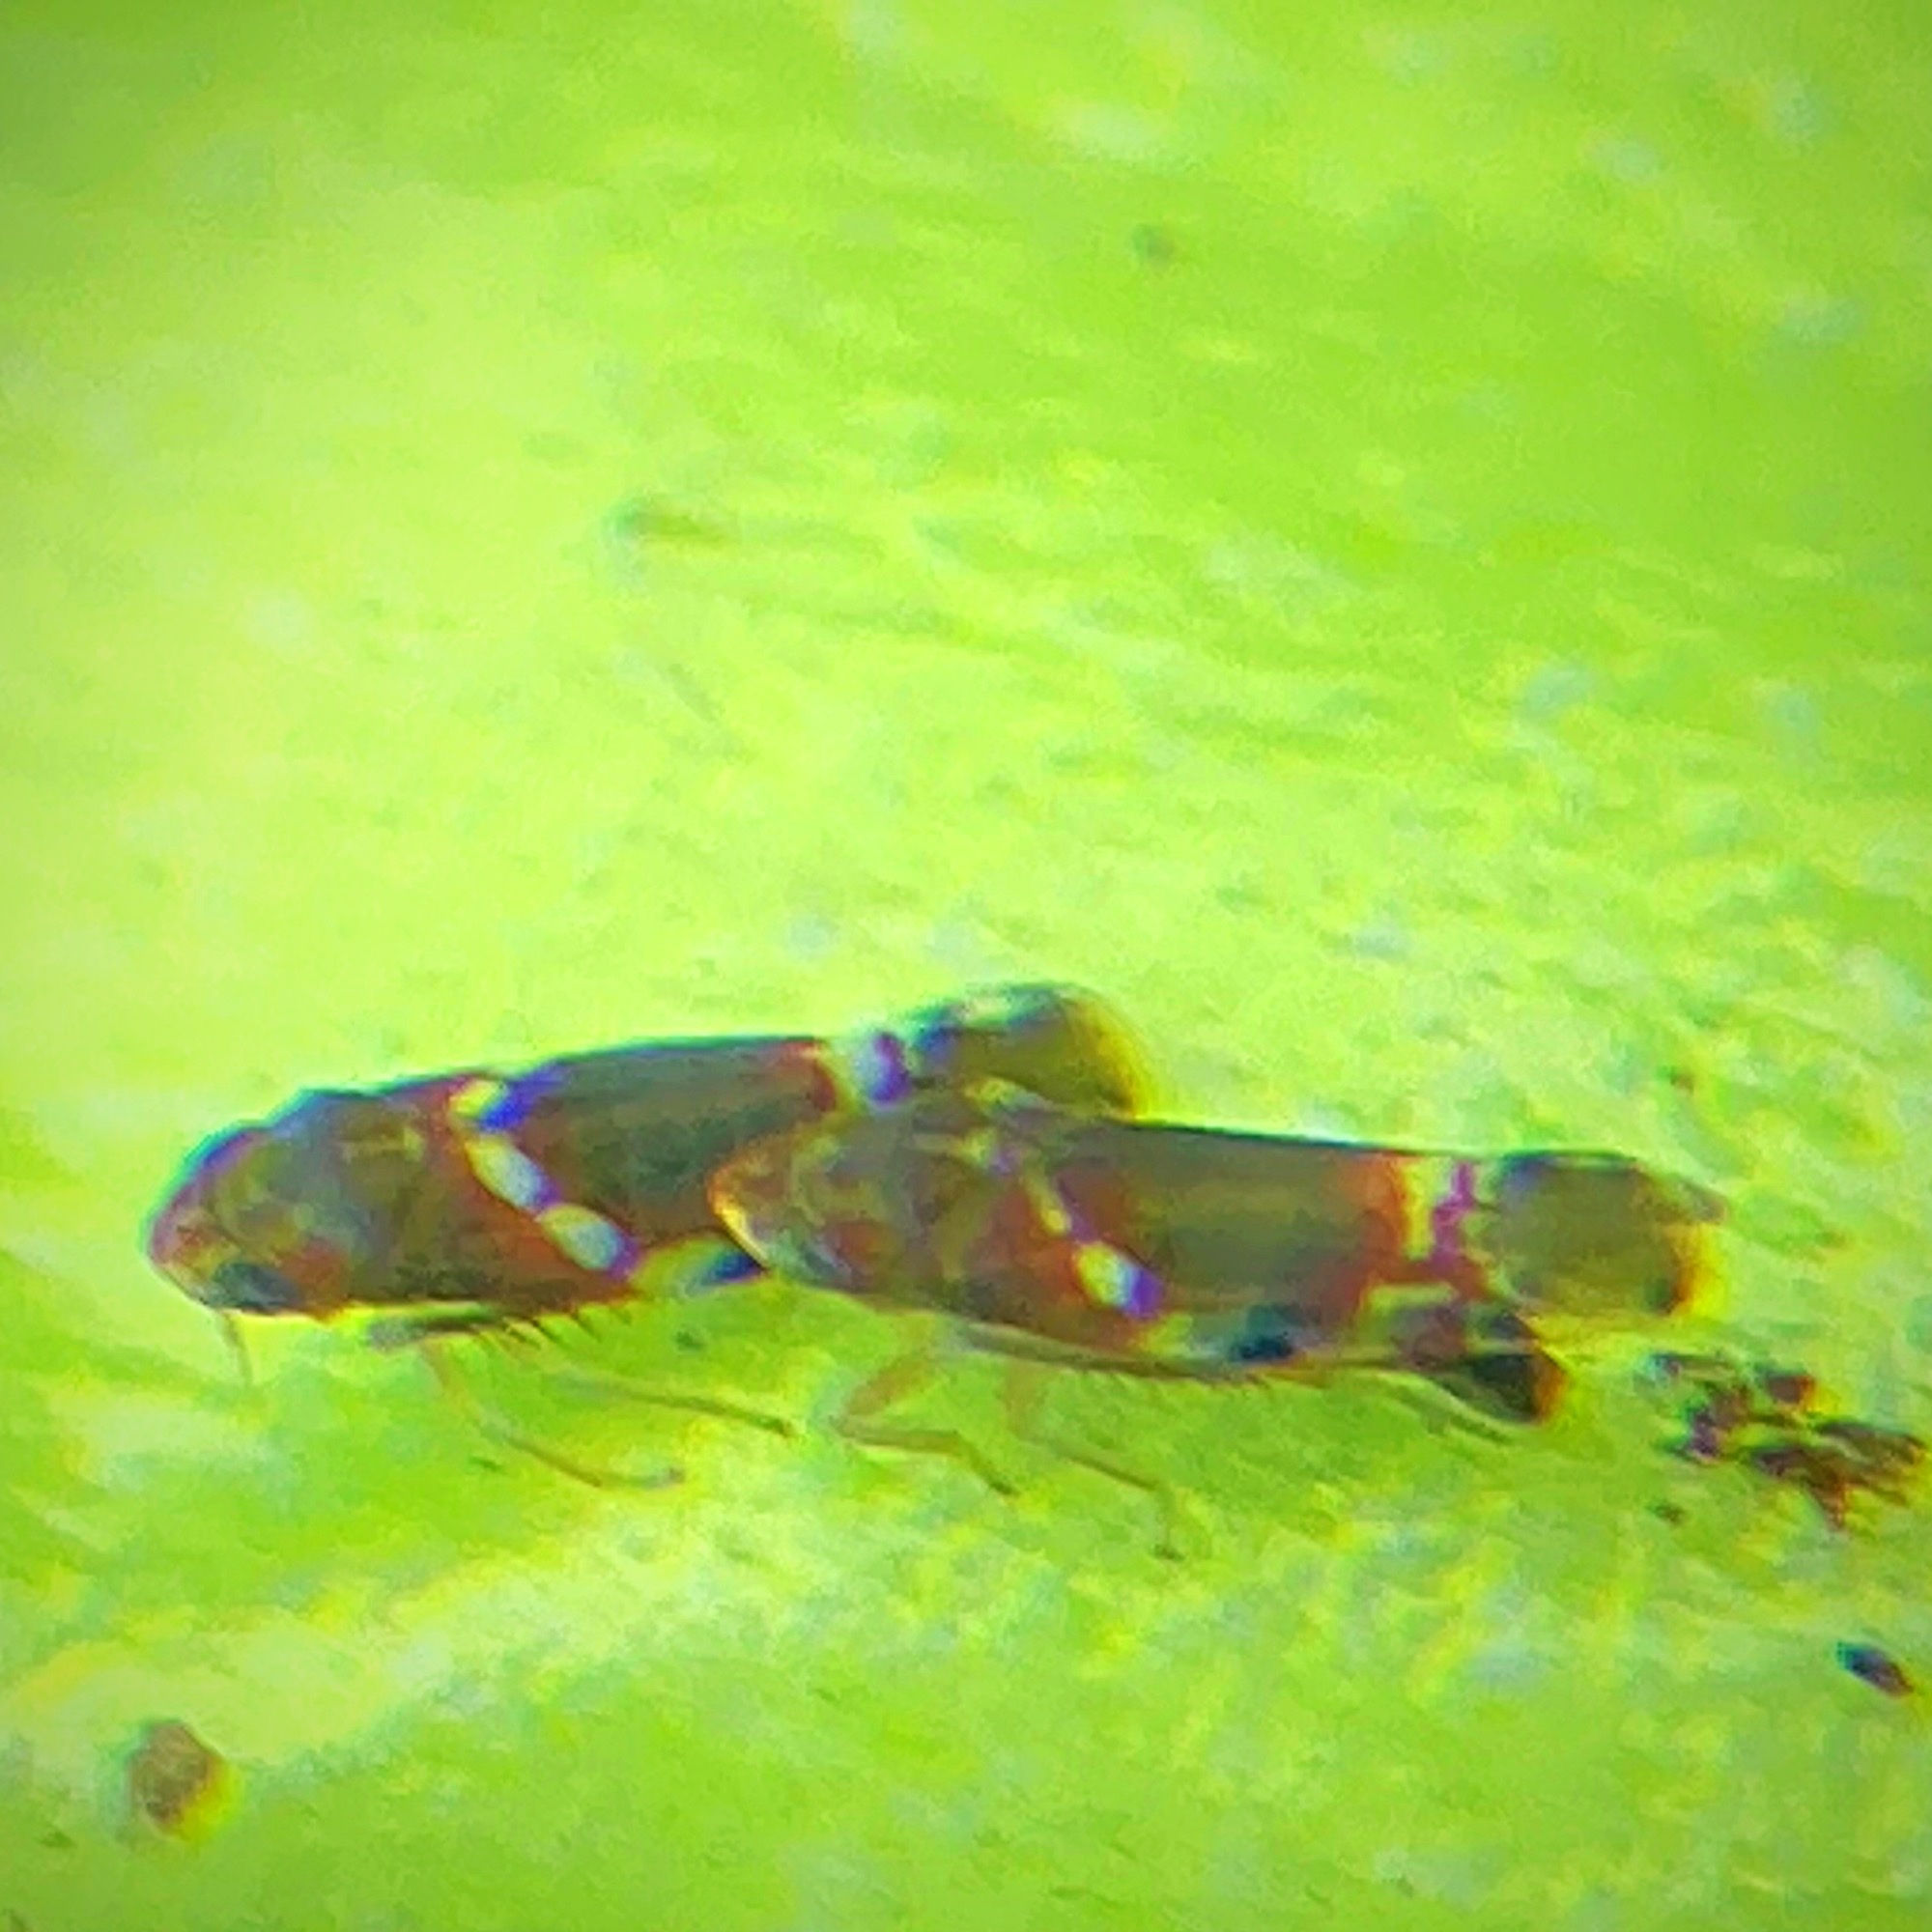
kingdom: Animalia
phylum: Arthropoda
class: Insecta
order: Hemiptera
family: Cicadellidae
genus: Erythroneura
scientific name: Erythroneura vitis
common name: Grapevine leafhopper
